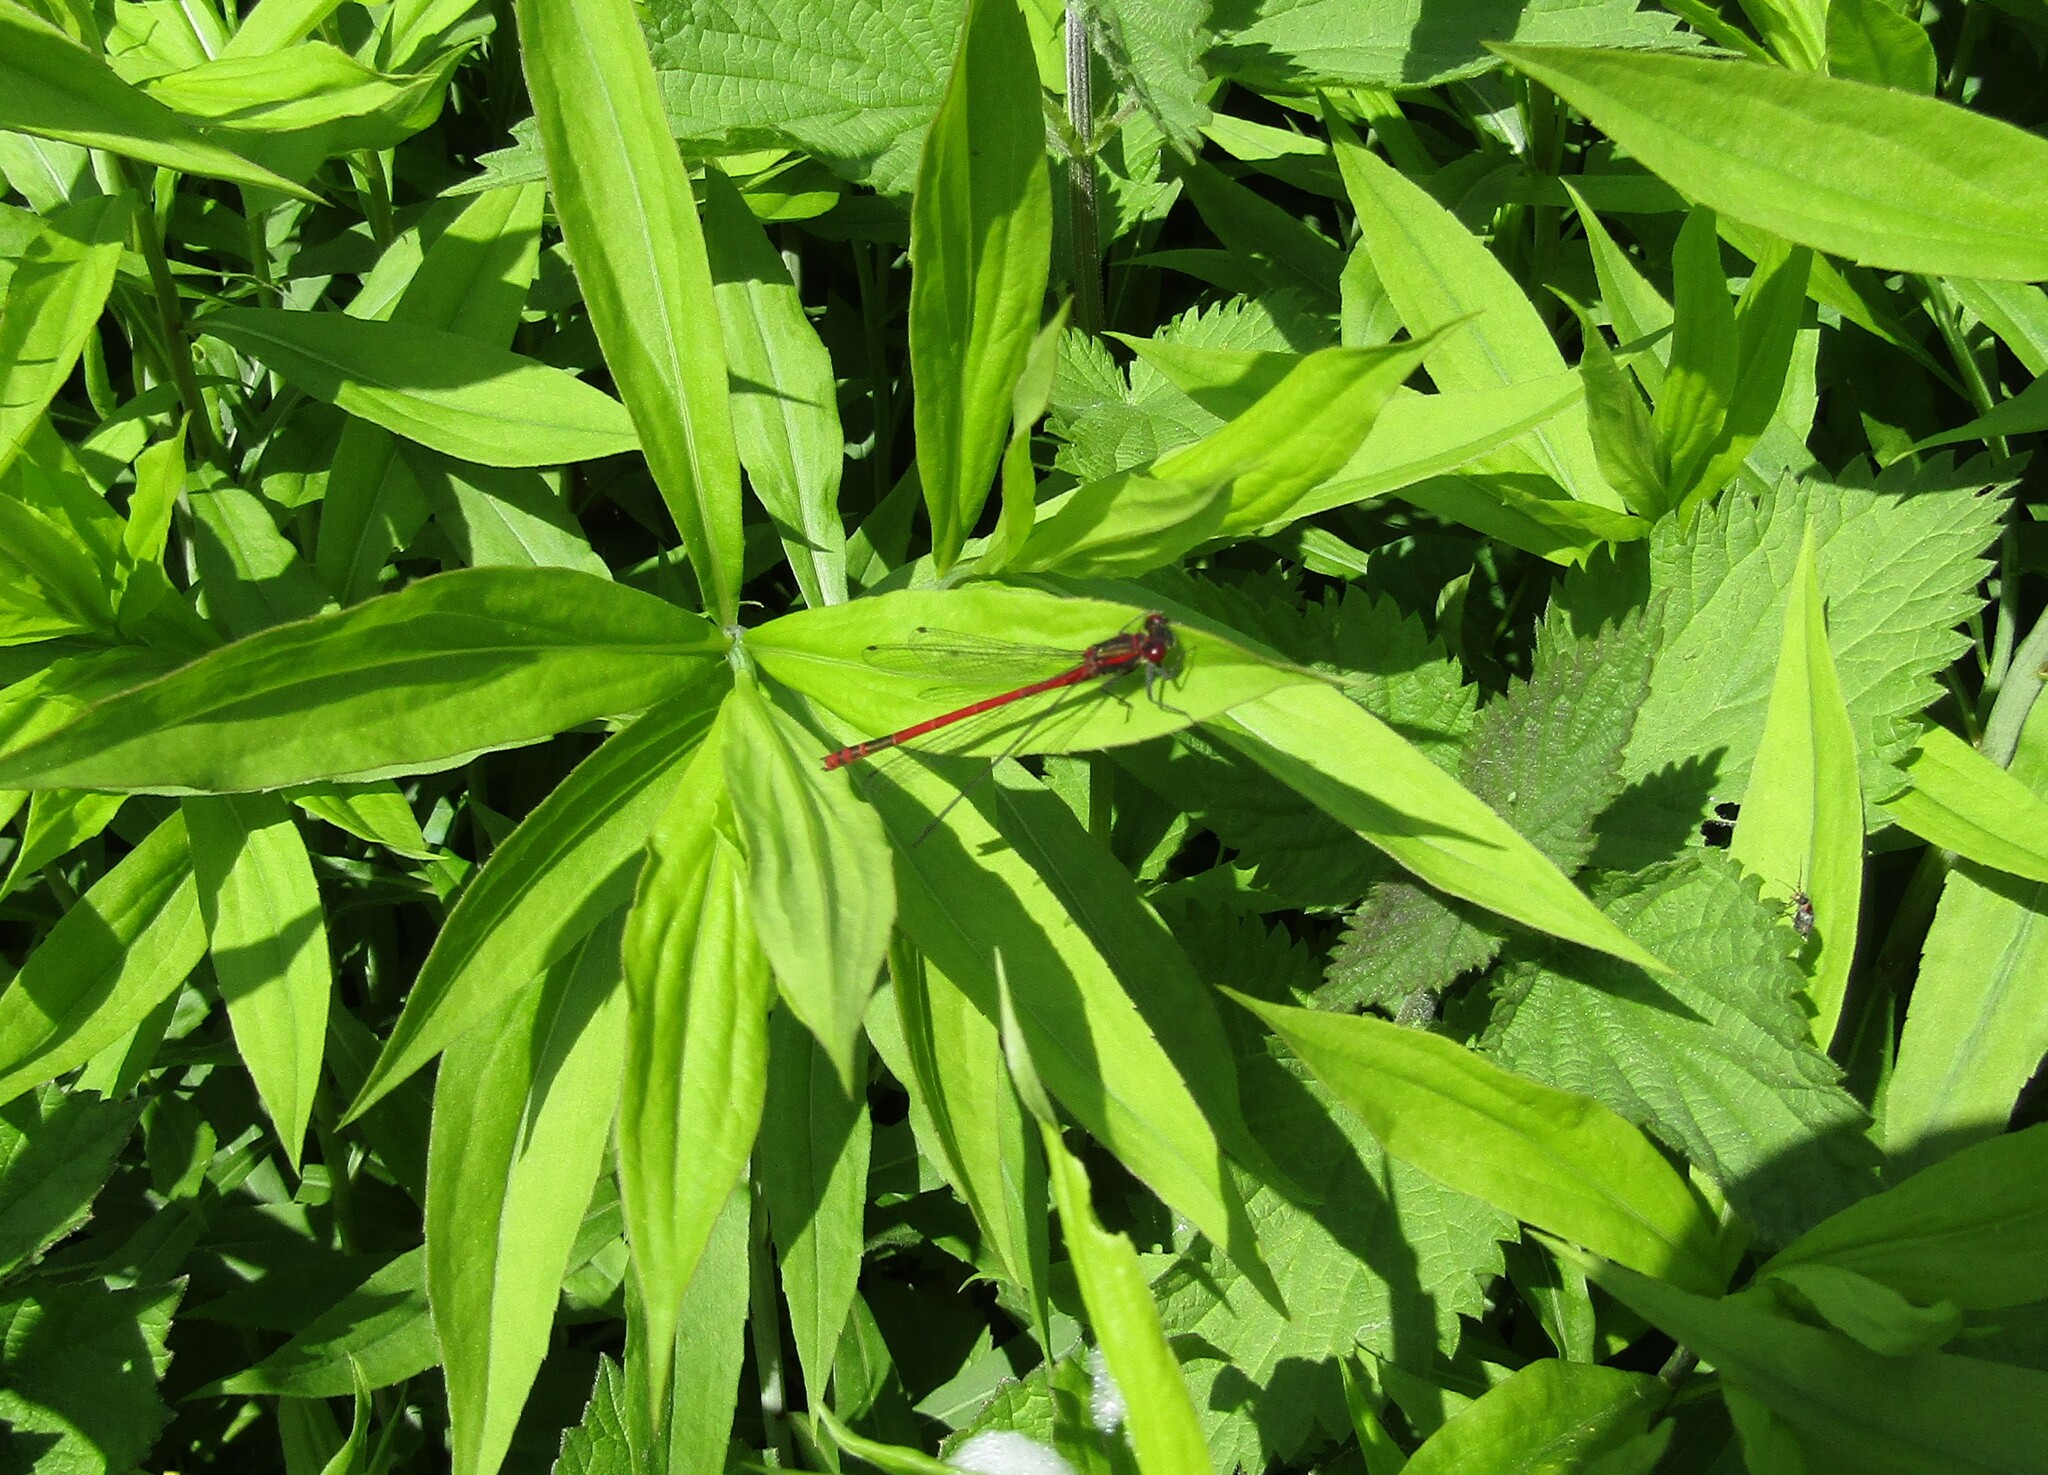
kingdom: Animalia
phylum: Arthropoda
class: Insecta
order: Odonata
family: Coenagrionidae
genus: Pyrrhosoma
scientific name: Pyrrhosoma nymphula
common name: Large red damsel
